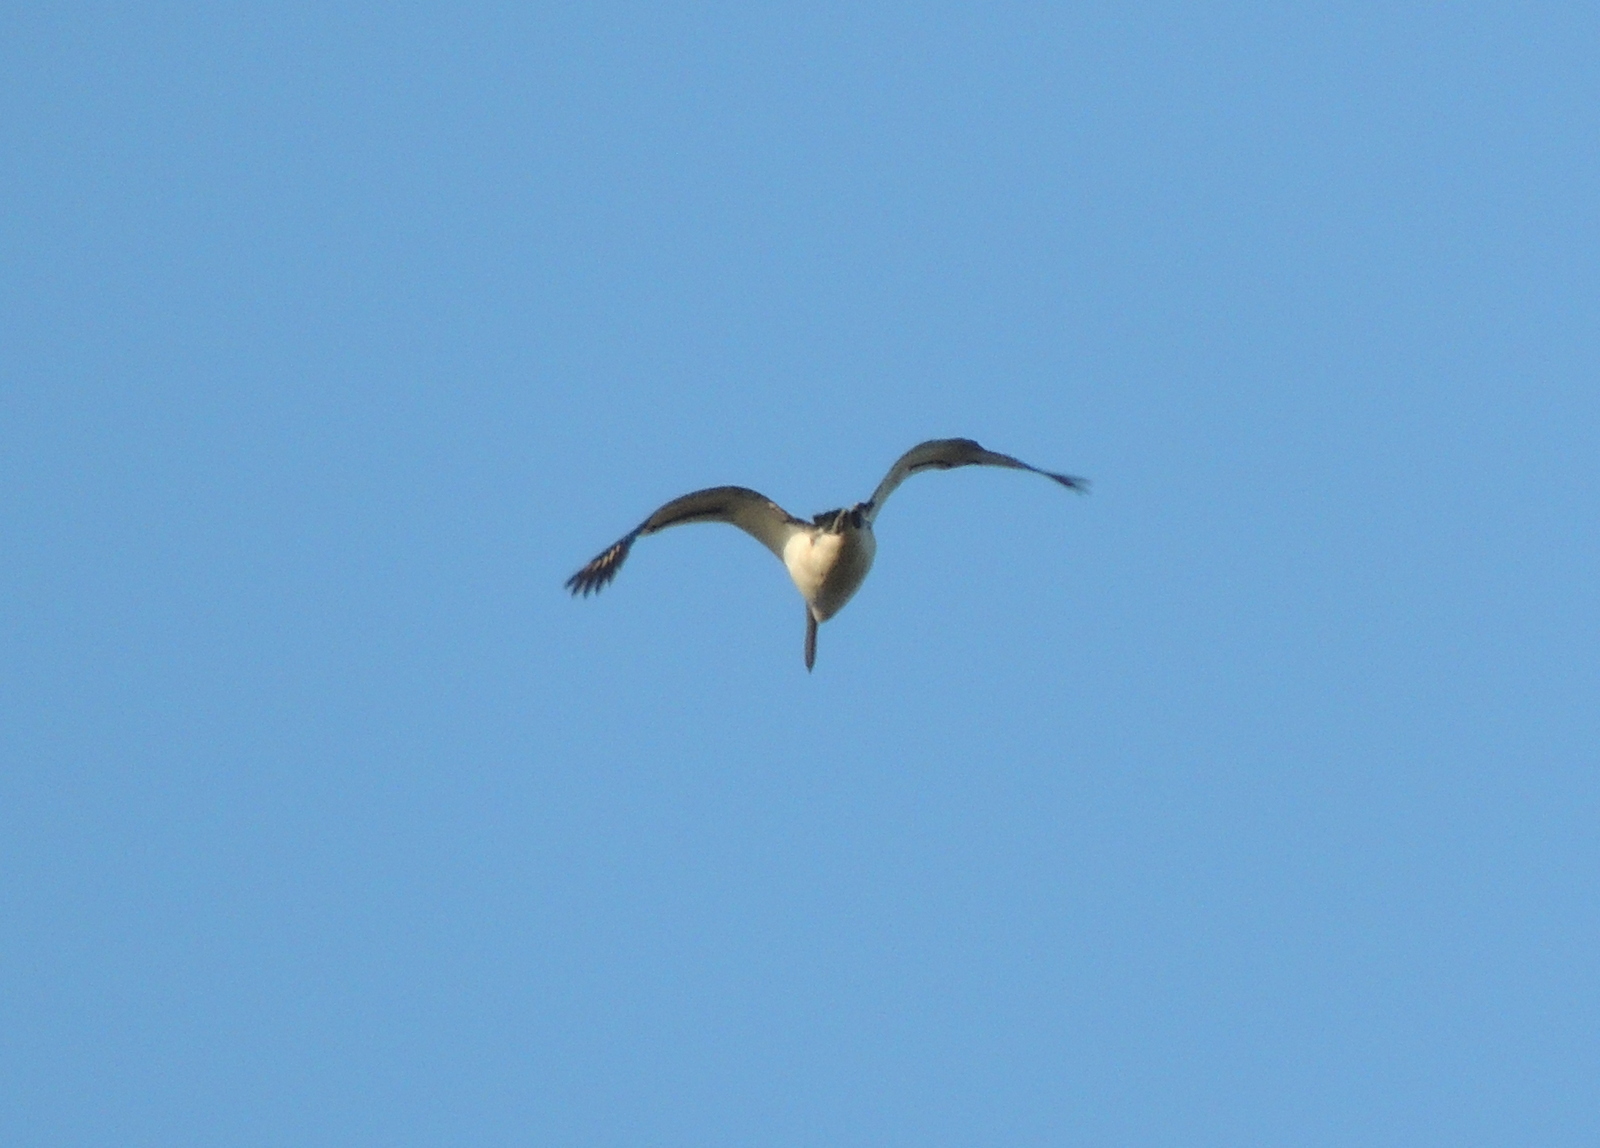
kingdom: Animalia
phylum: Chordata
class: Aves
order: Pelecaniformes
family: Pelecanidae
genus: Pelecanus
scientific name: Pelecanus conspicillatus
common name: Australian pelican
